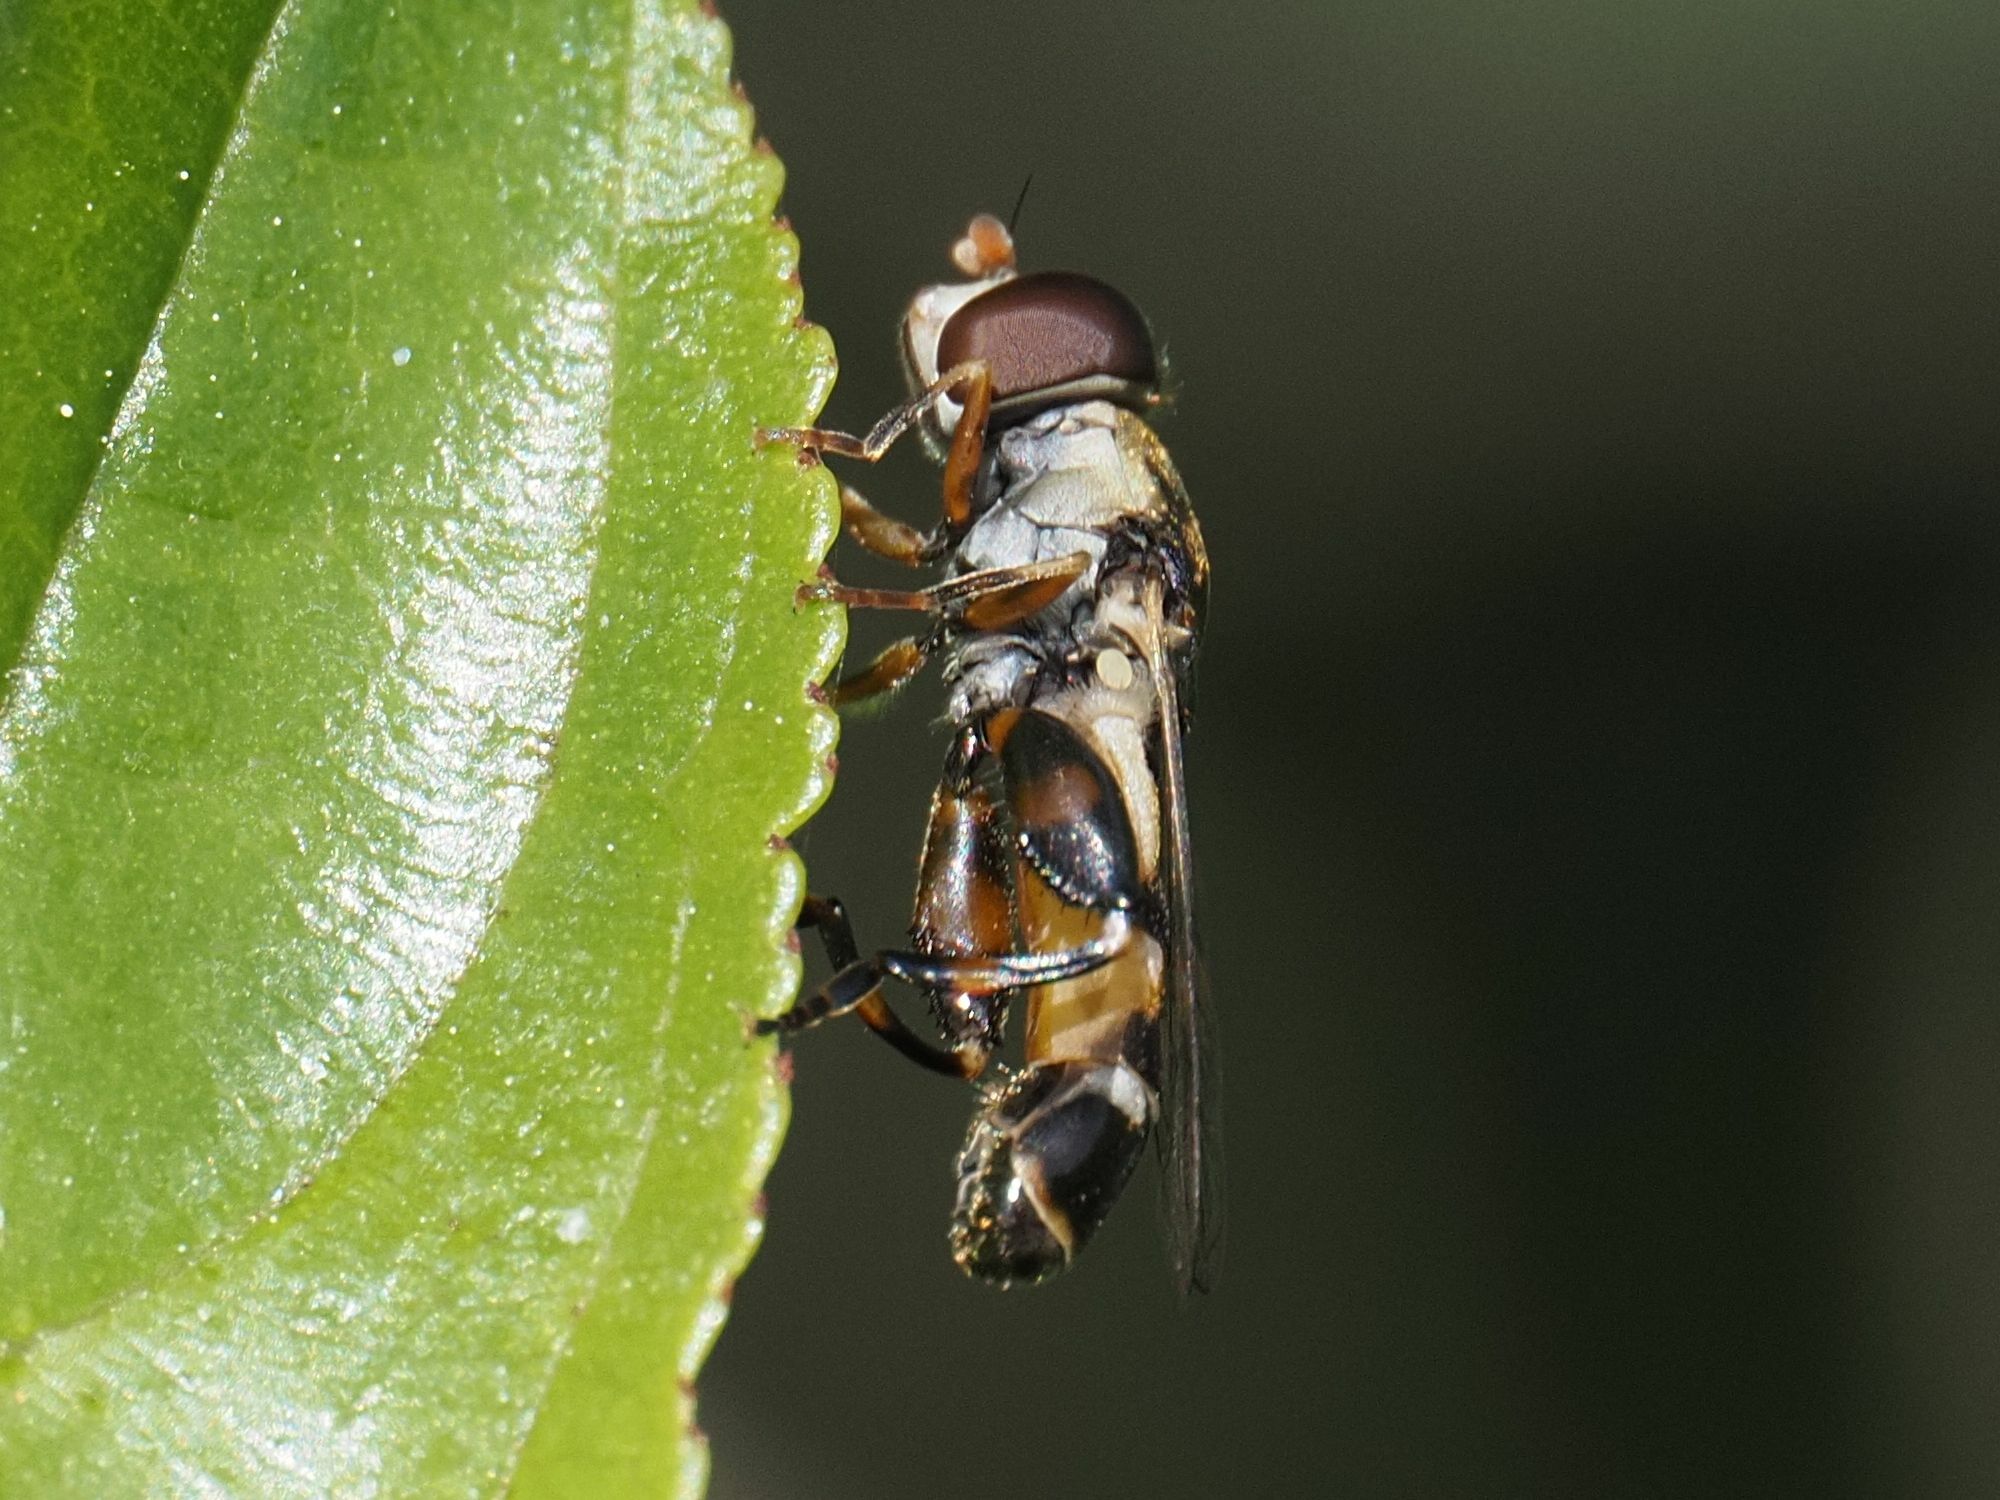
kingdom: Animalia
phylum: Arthropoda
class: Insecta
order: Diptera
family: Syrphidae
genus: Syritta
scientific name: Syritta pipiens
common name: Hover fly
